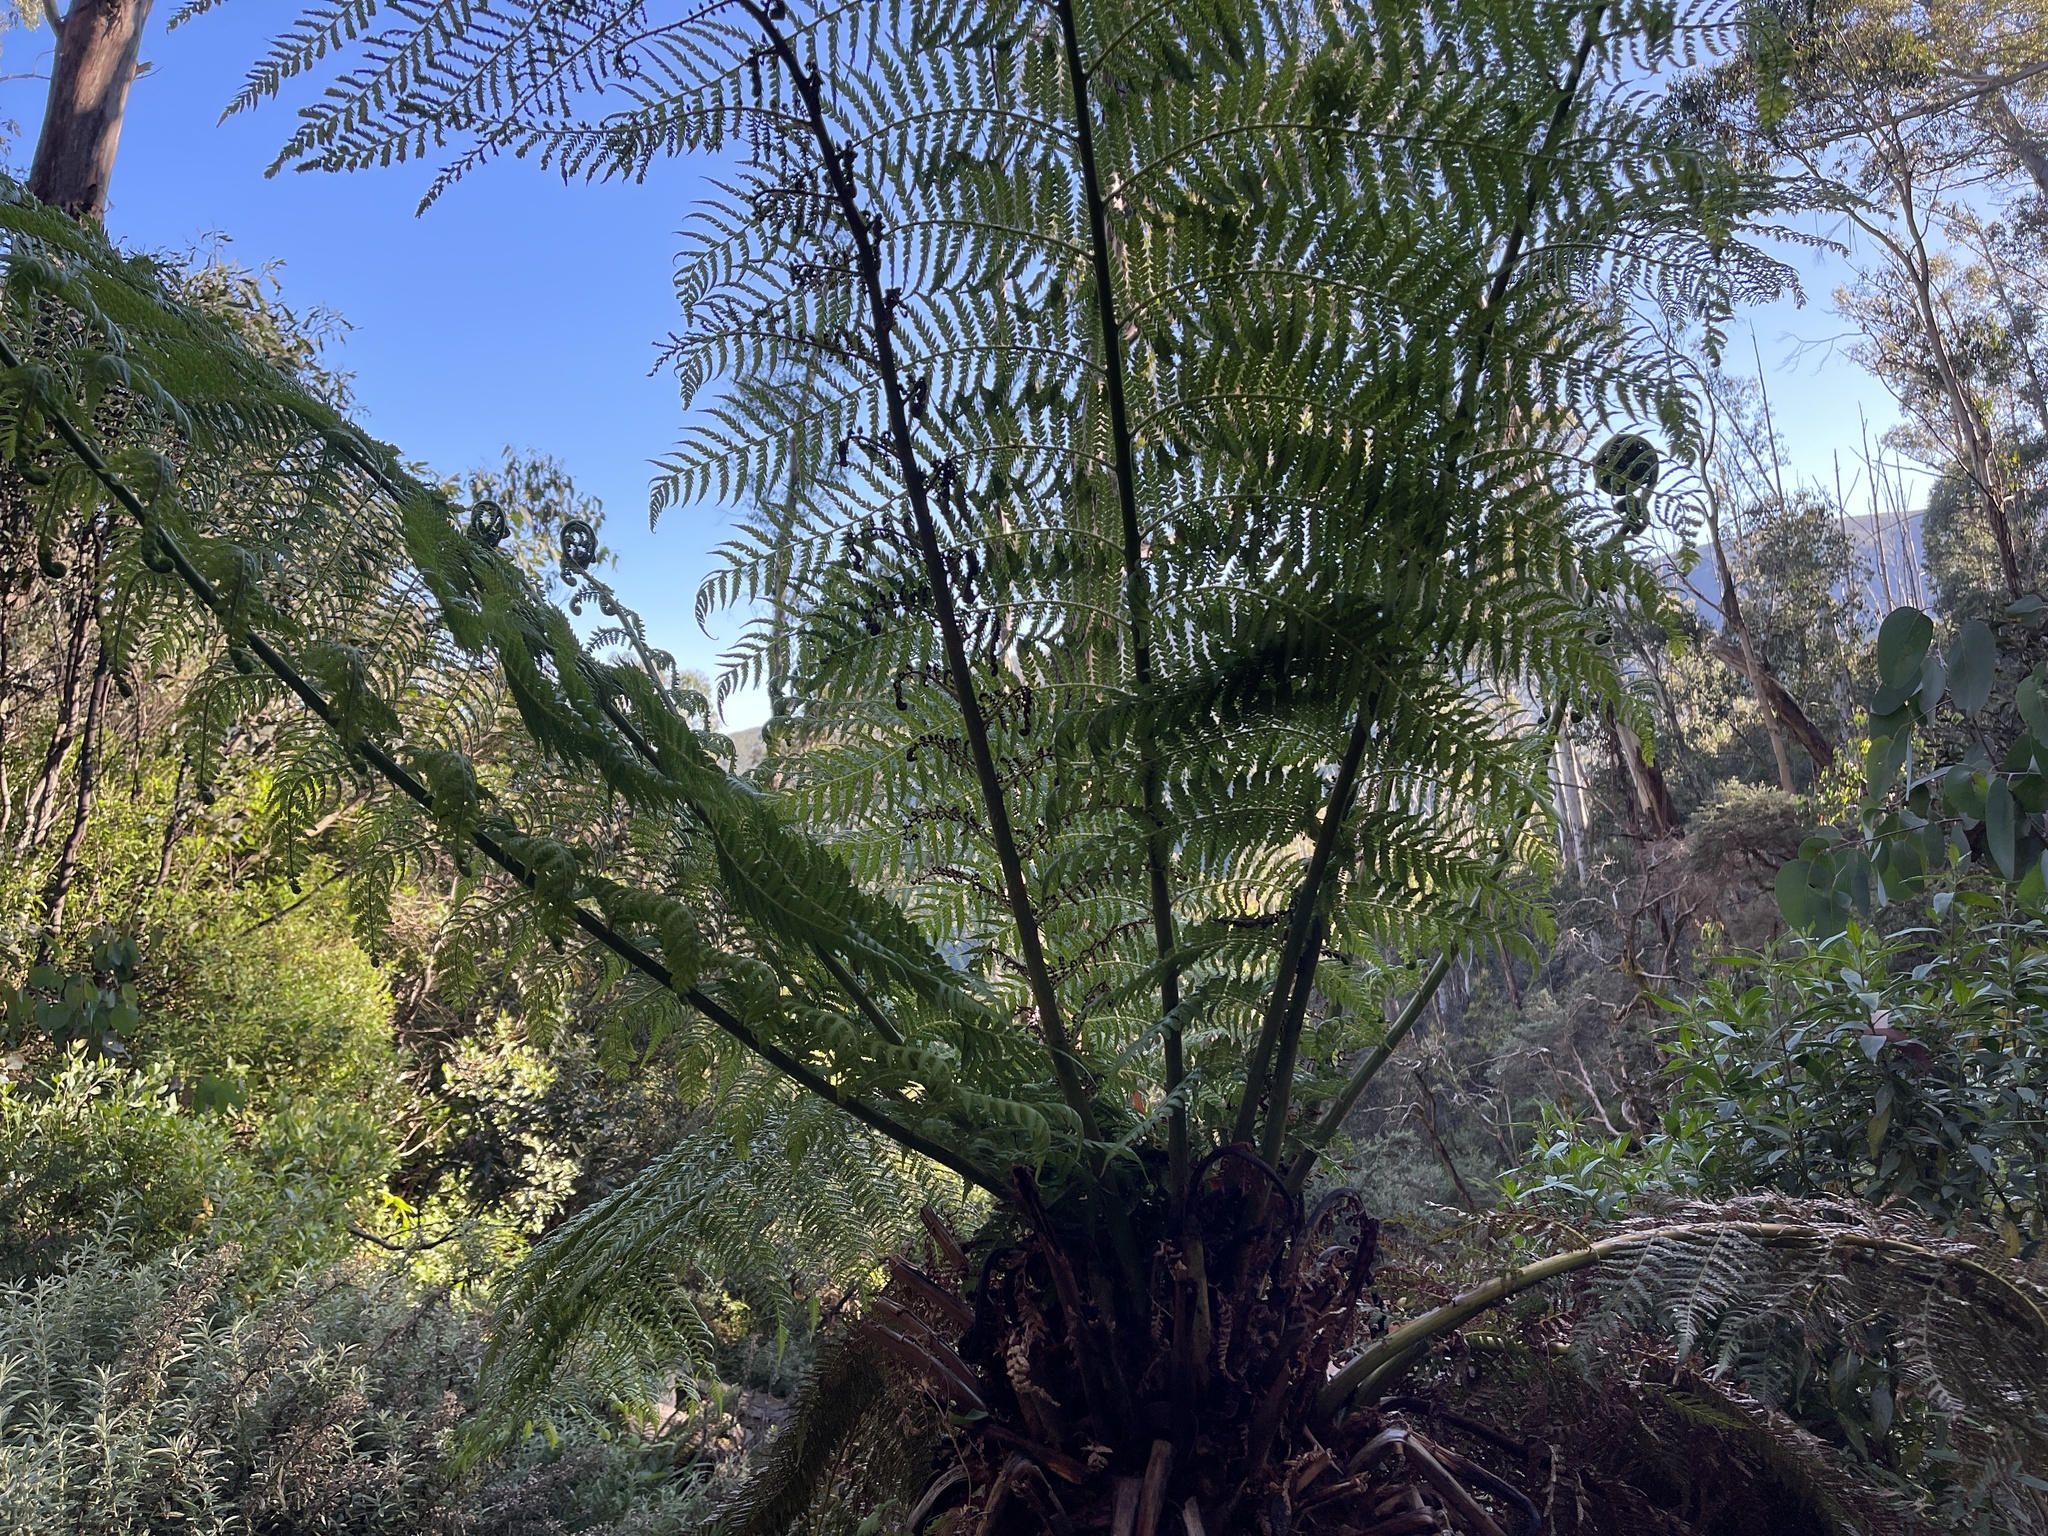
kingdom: Plantae
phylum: Tracheophyta
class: Polypodiopsida
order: Cyatheales
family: Dicksoniaceae
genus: Dicksonia
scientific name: Dicksonia antarctica
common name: Australian treefern
